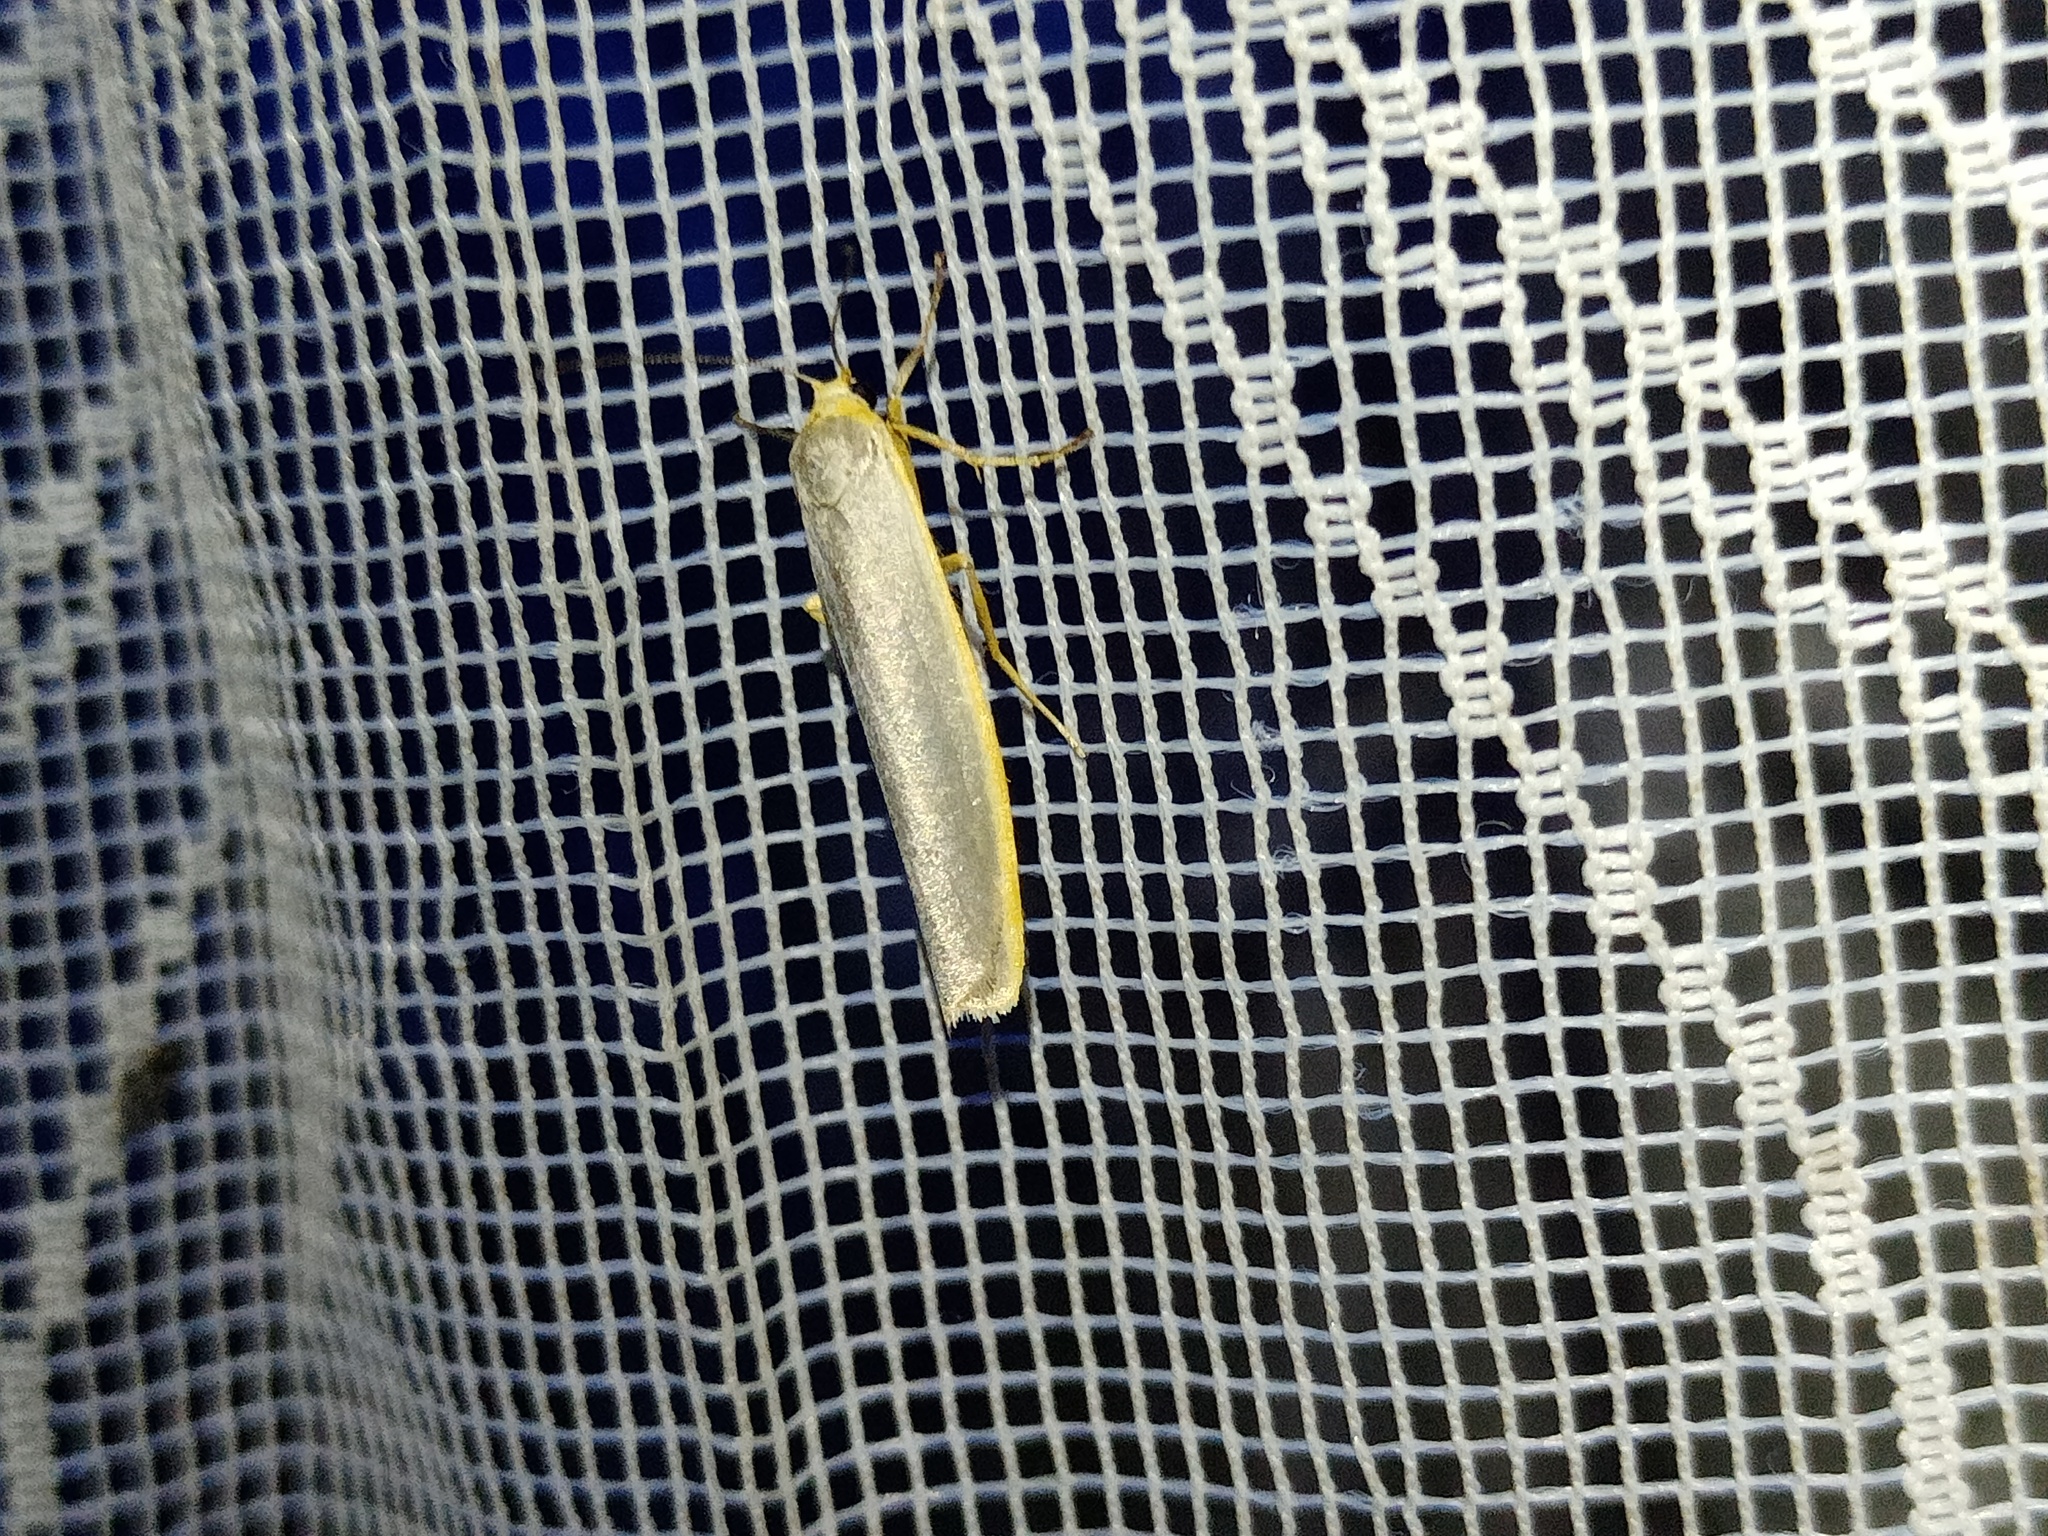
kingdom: Animalia
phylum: Arthropoda
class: Insecta
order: Lepidoptera
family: Erebidae
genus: Manulea
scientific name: Manulea complana
